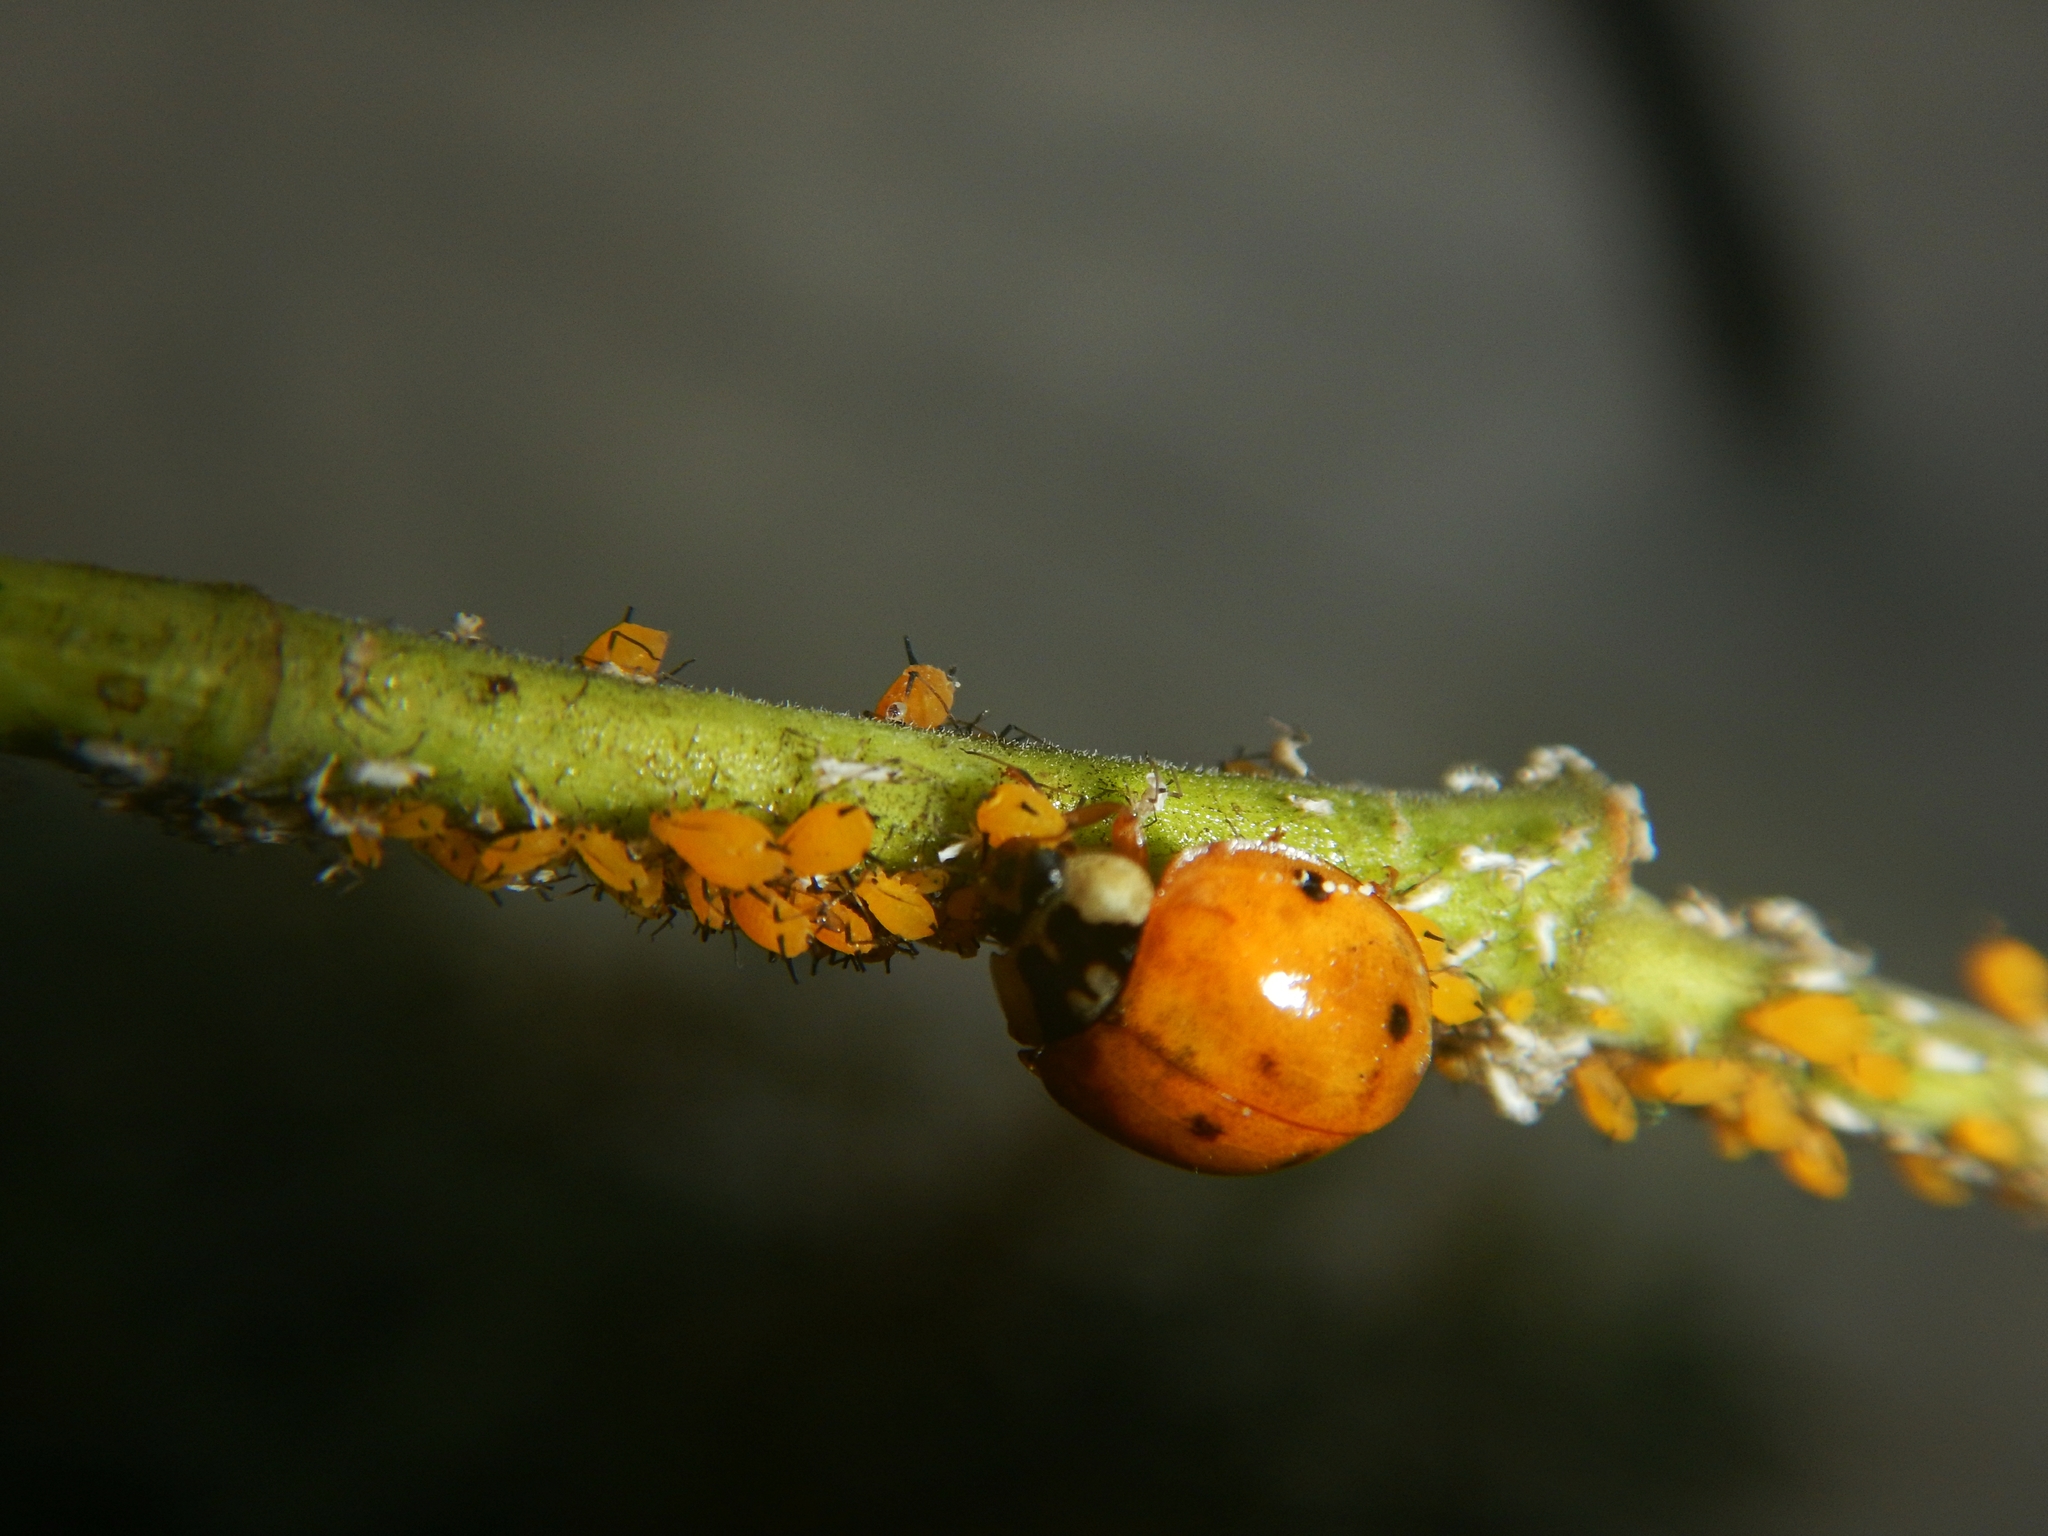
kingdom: Animalia
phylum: Arthropoda
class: Insecta
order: Coleoptera
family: Coccinellidae
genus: Harmonia
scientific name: Harmonia axyridis
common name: Harlequin ladybird
